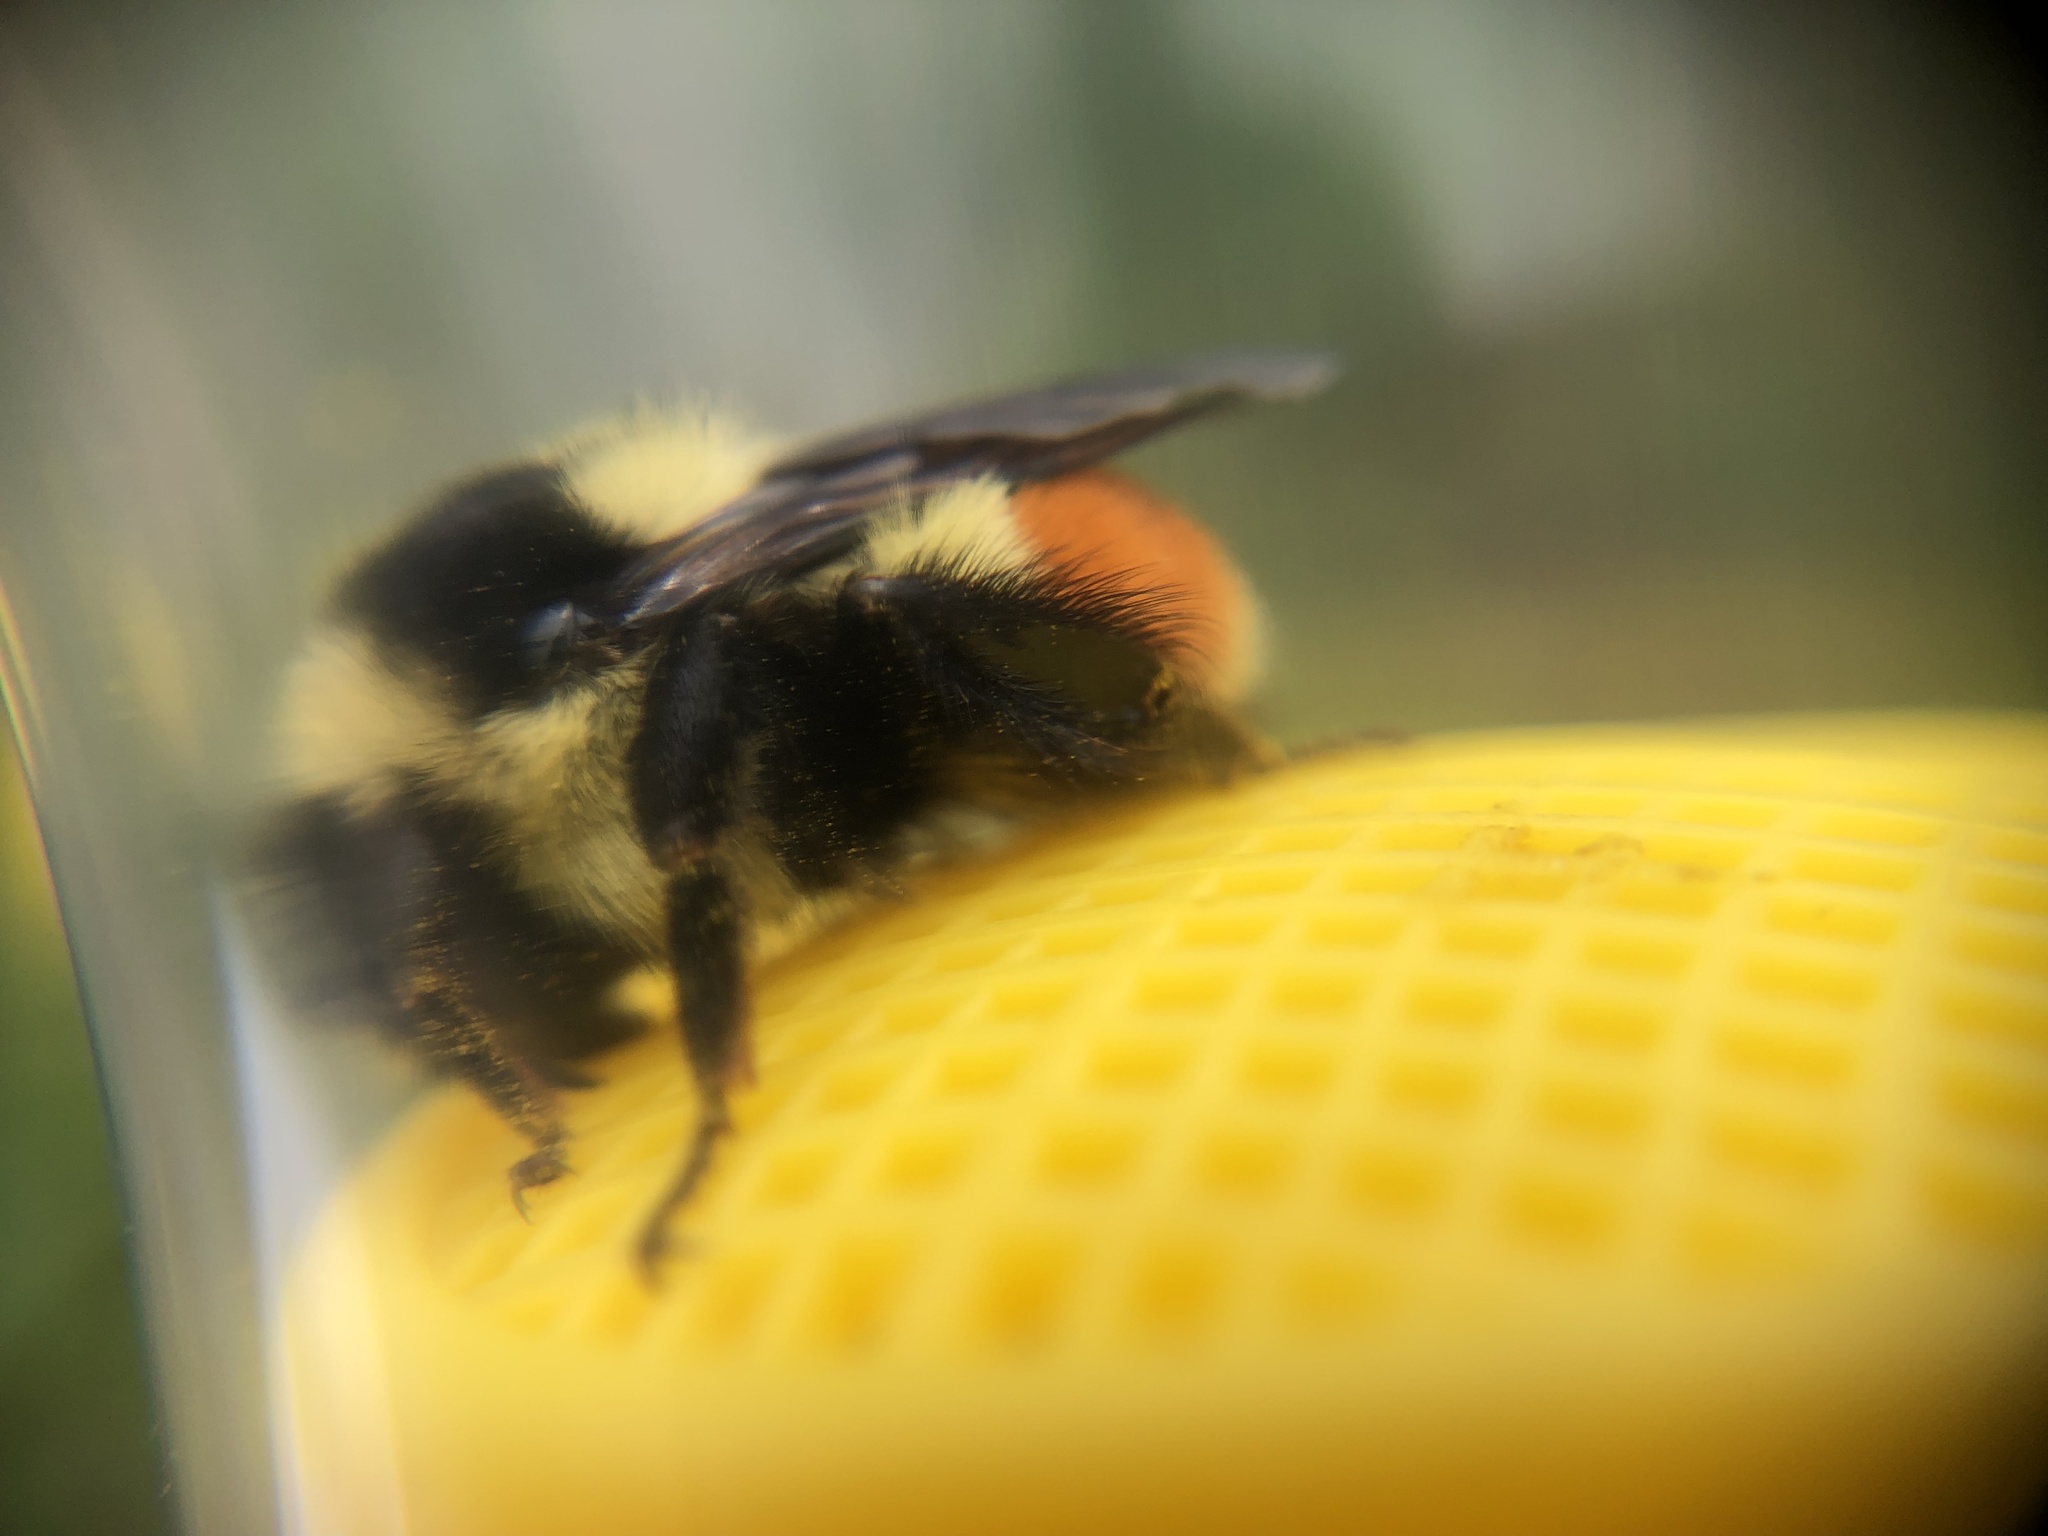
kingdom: Animalia
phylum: Arthropoda
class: Insecta
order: Hymenoptera
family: Apidae
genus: Bombus
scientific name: Bombus ternarius
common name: Tri-colored bumble bee
